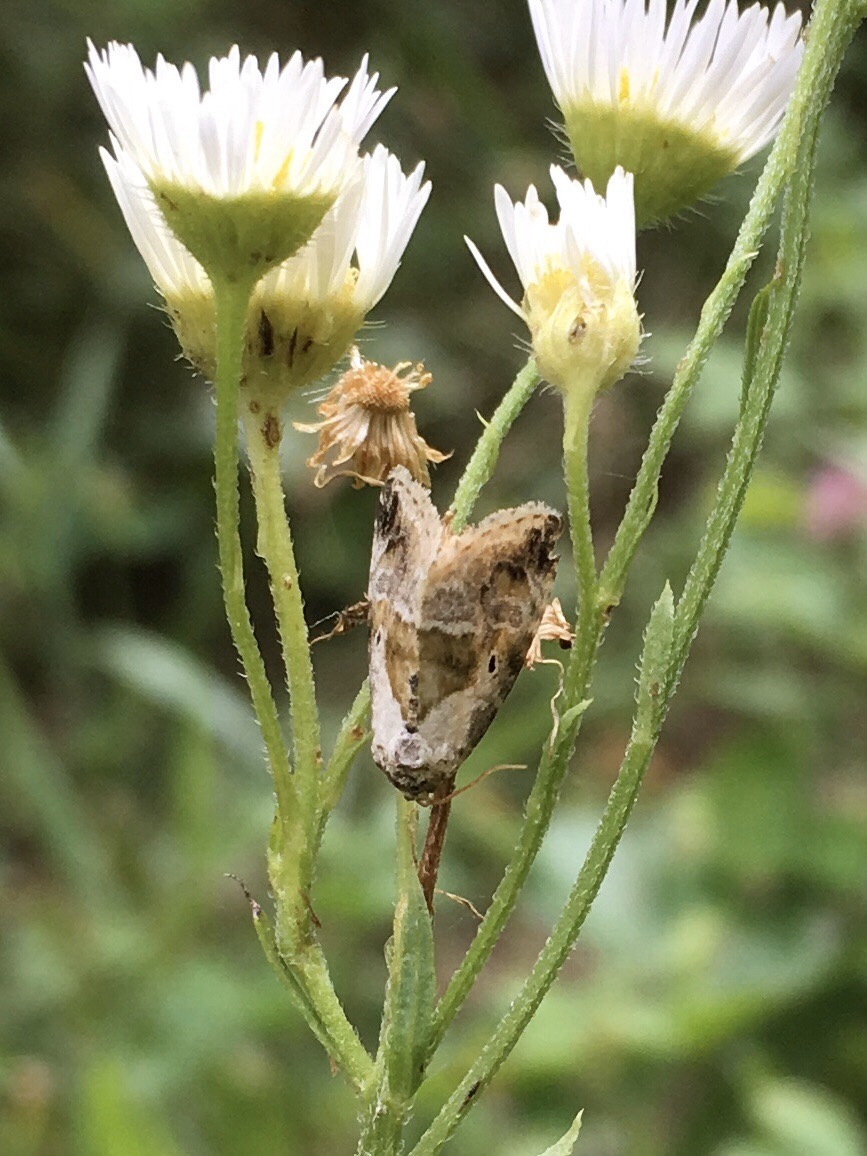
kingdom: Animalia
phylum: Arthropoda
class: Insecta
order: Lepidoptera
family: Noctuidae
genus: Maliattha
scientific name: Maliattha synochitis
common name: Black-dotted glyph
